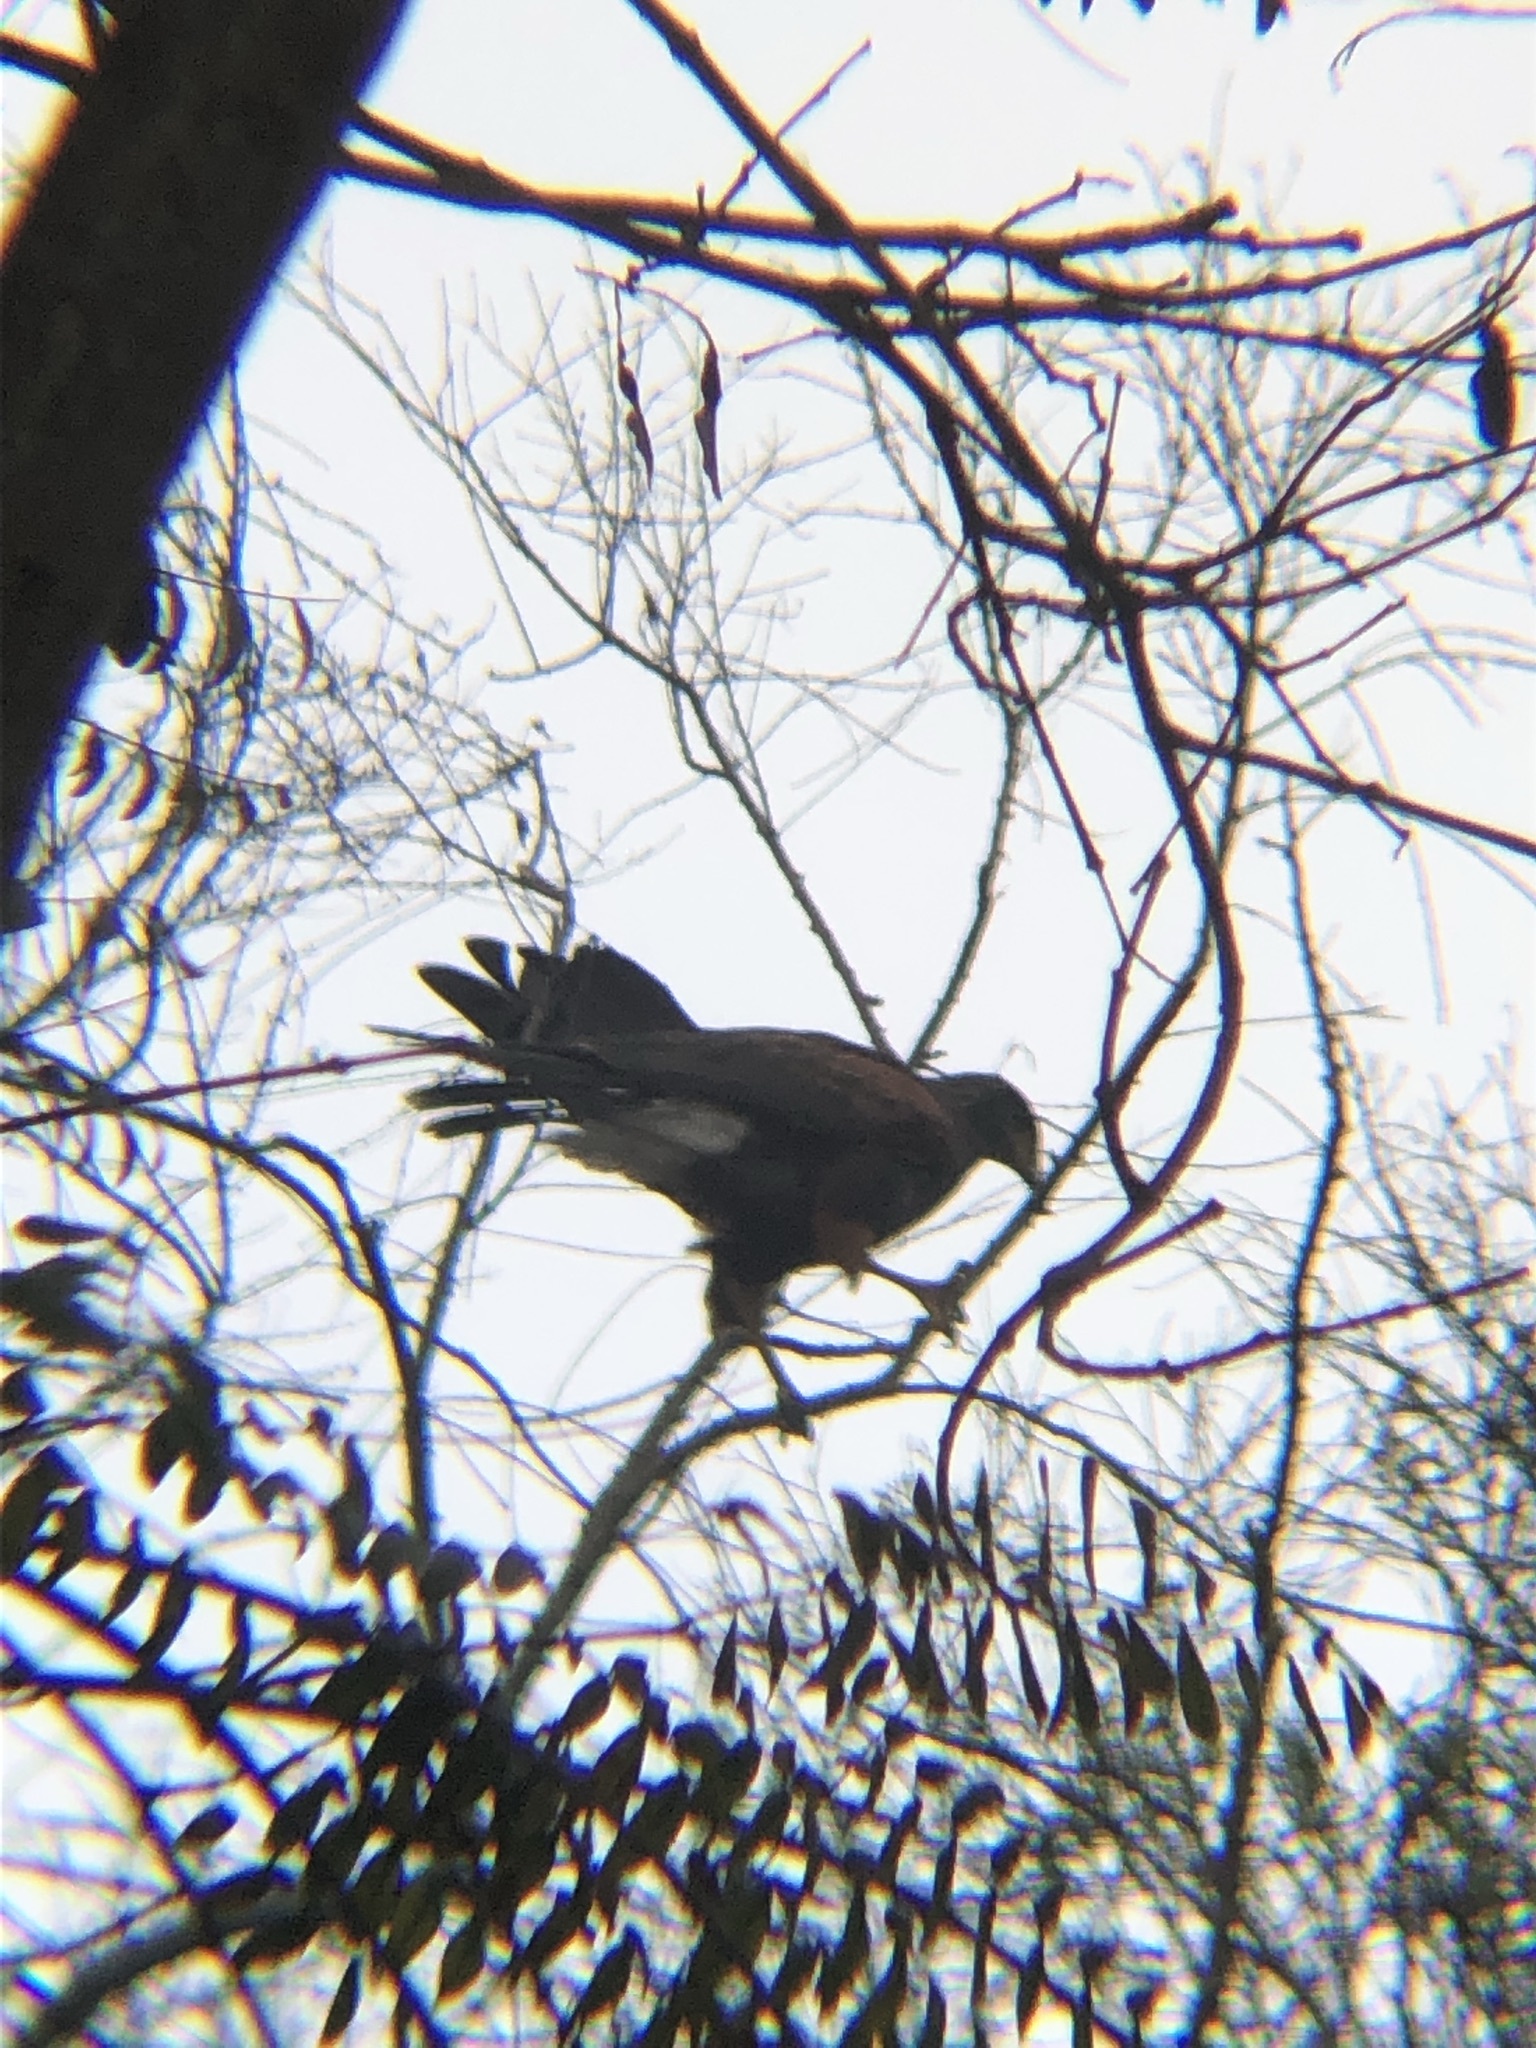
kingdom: Animalia
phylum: Chordata
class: Aves
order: Accipitriformes
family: Accipitridae
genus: Parabuteo
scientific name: Parabuteo unicinctus
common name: Harris's hawk
